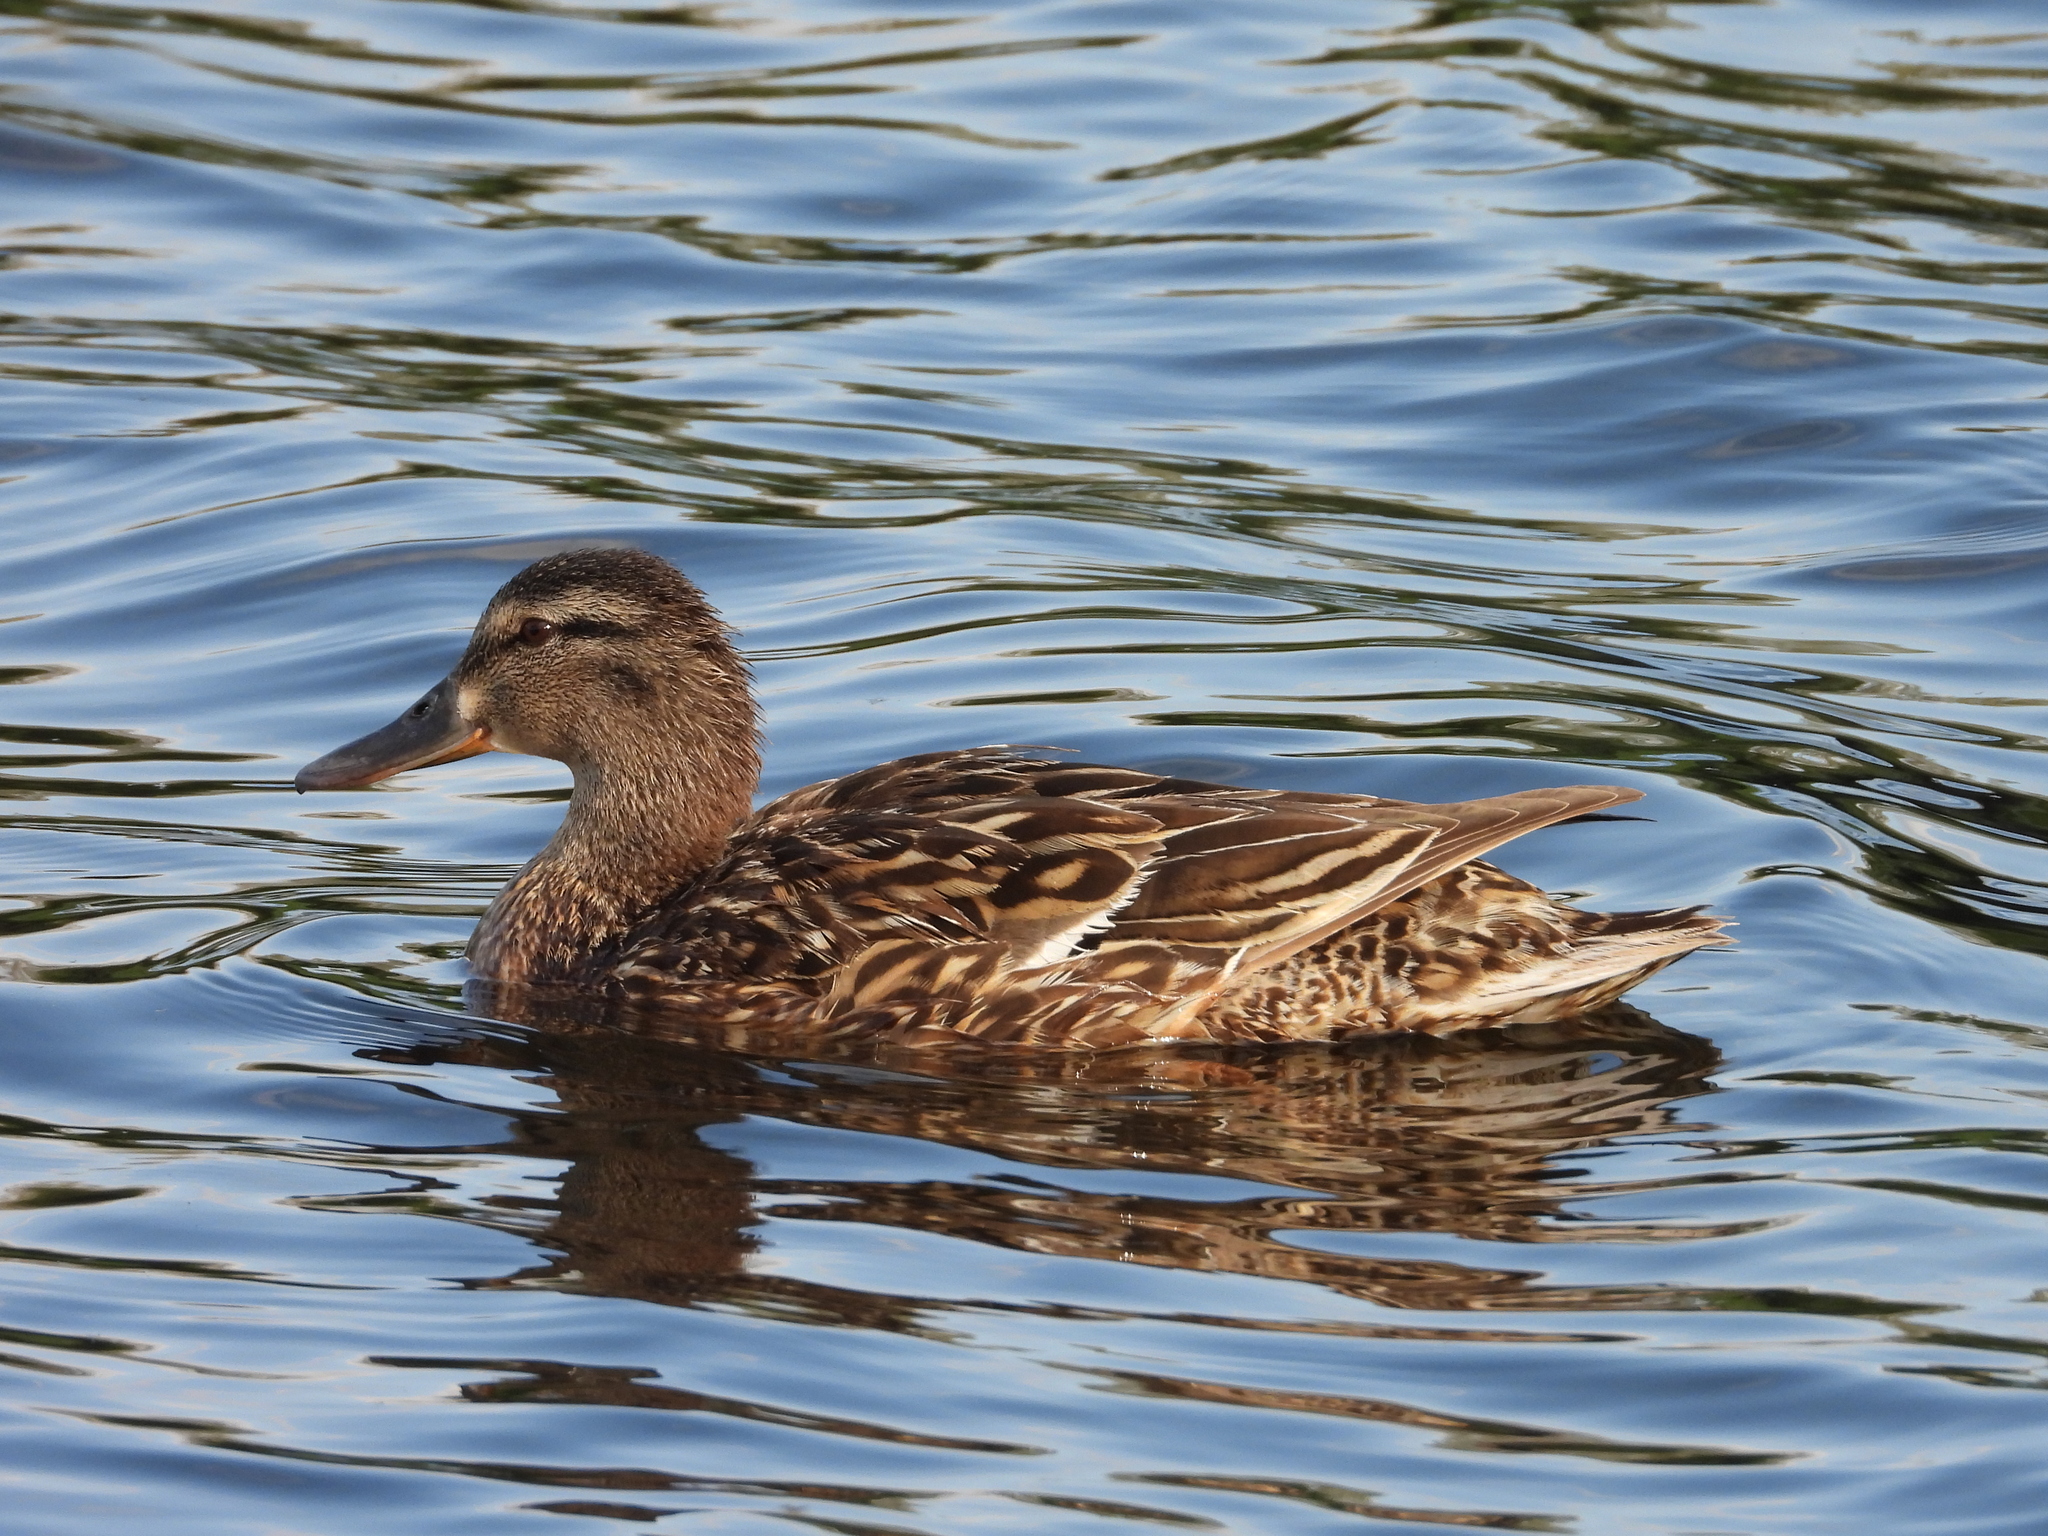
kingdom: Animalia
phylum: Chordata
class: Aves
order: Anseriformes
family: Anatidae
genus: Anas
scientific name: Anas platyrhynchos
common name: Mallard
